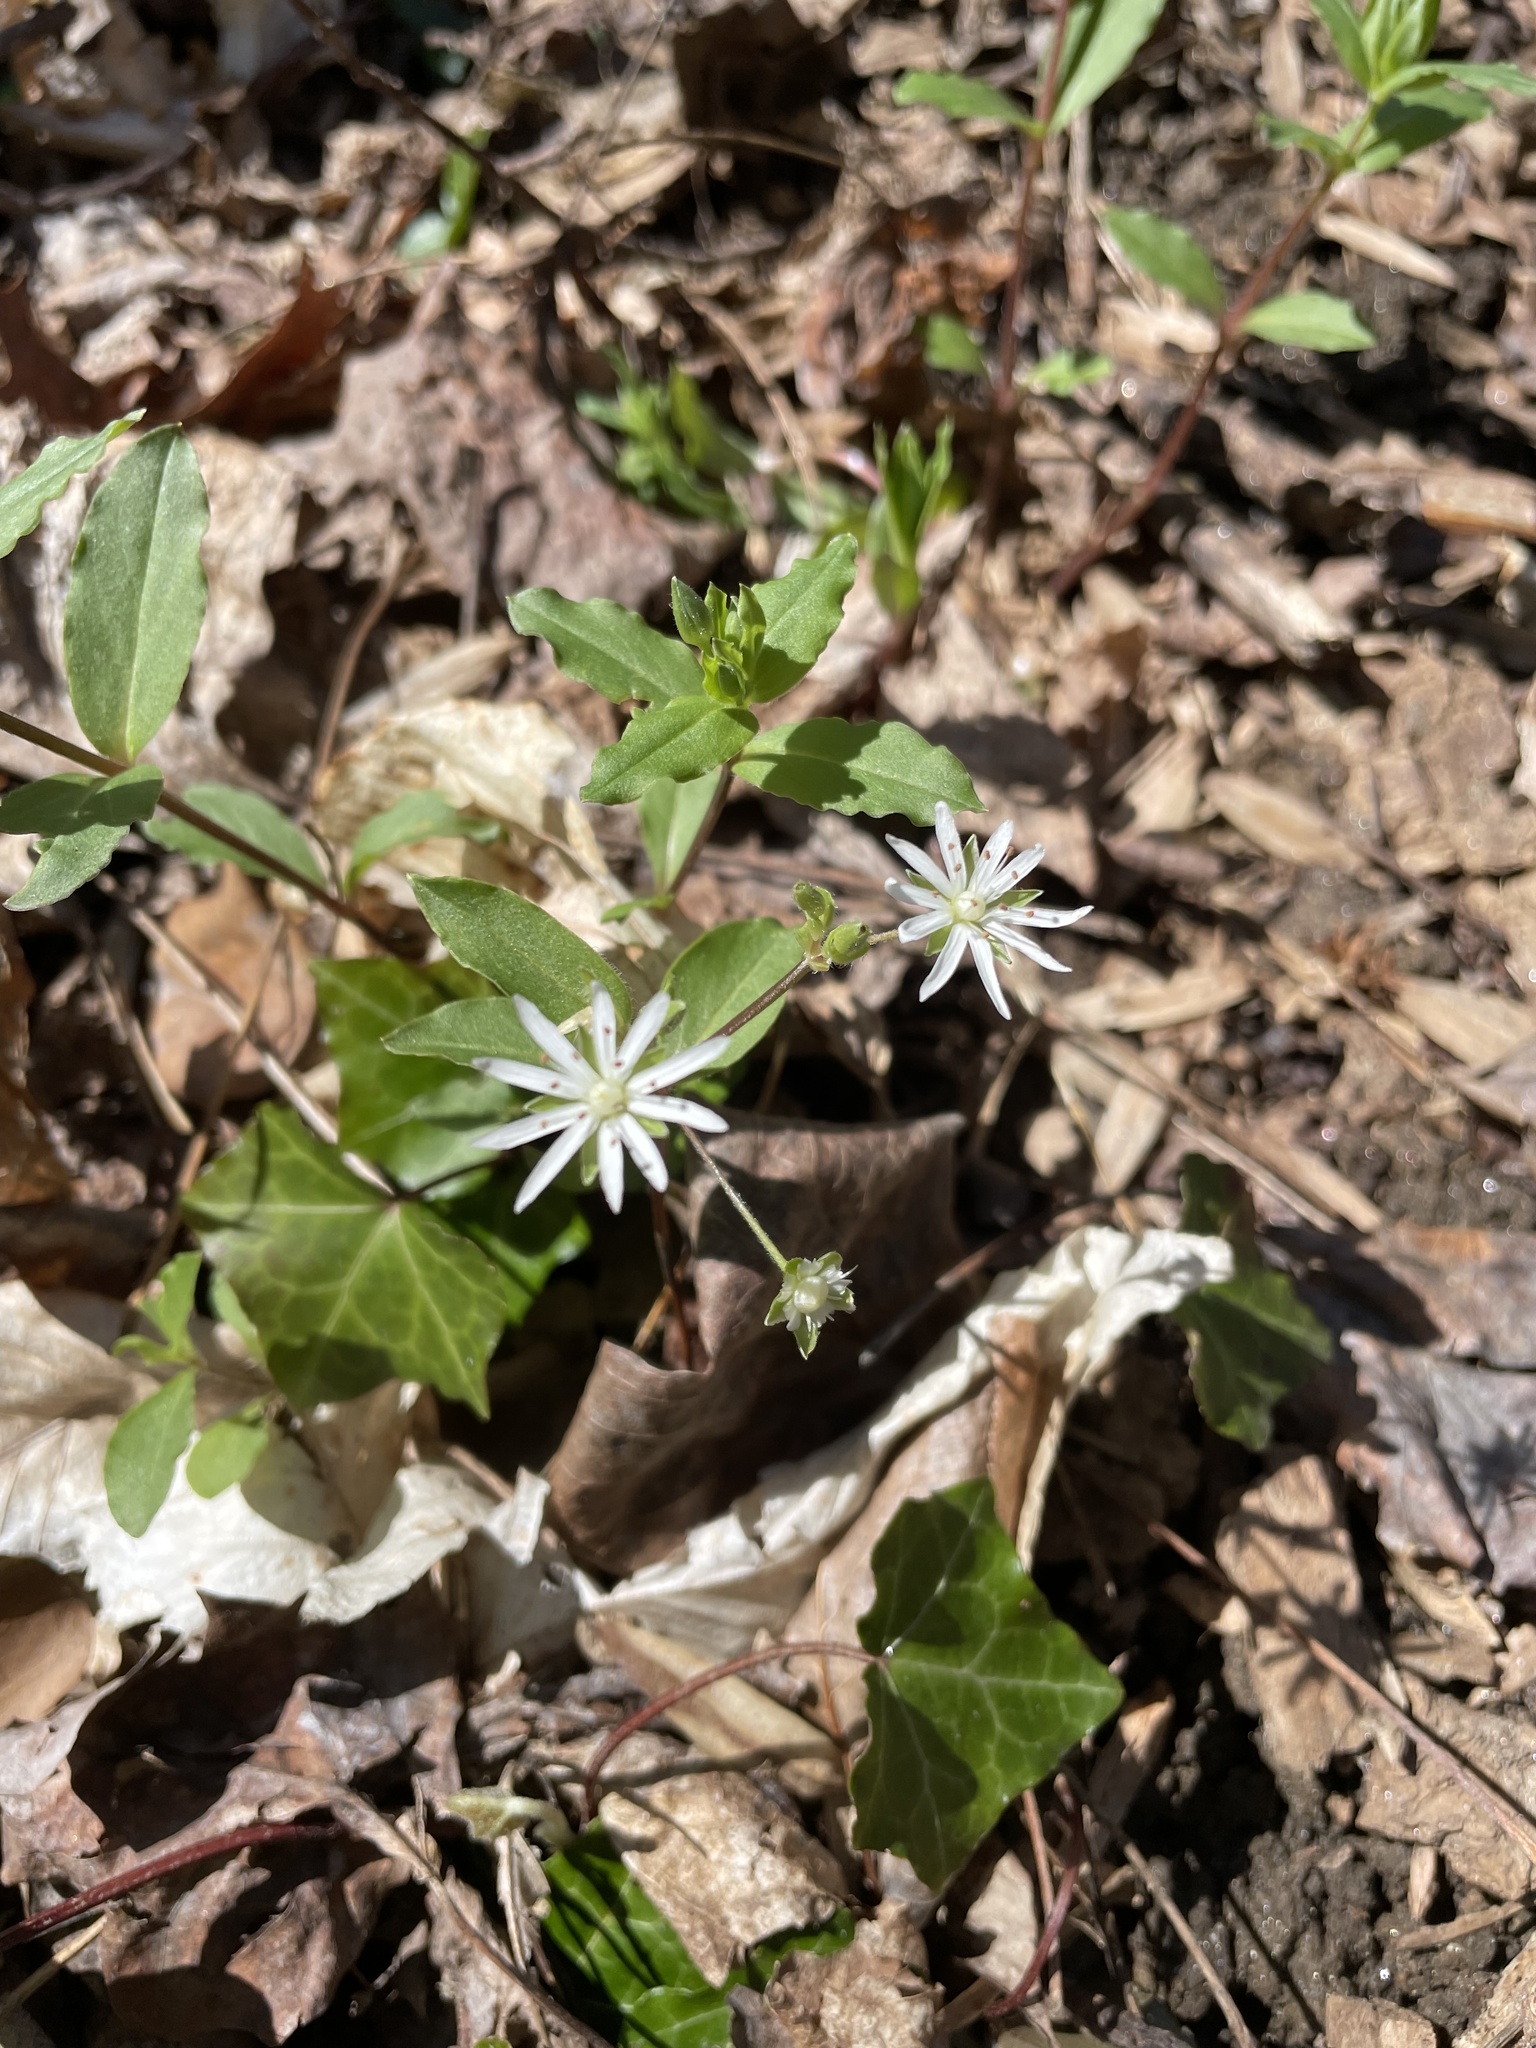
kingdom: Plantae
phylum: Tracheophyta
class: Magnoliopsida
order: Caryophyllales
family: Caryophyllaceae
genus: Stellaria
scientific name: Stellaria pubera
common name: Star chickweed
